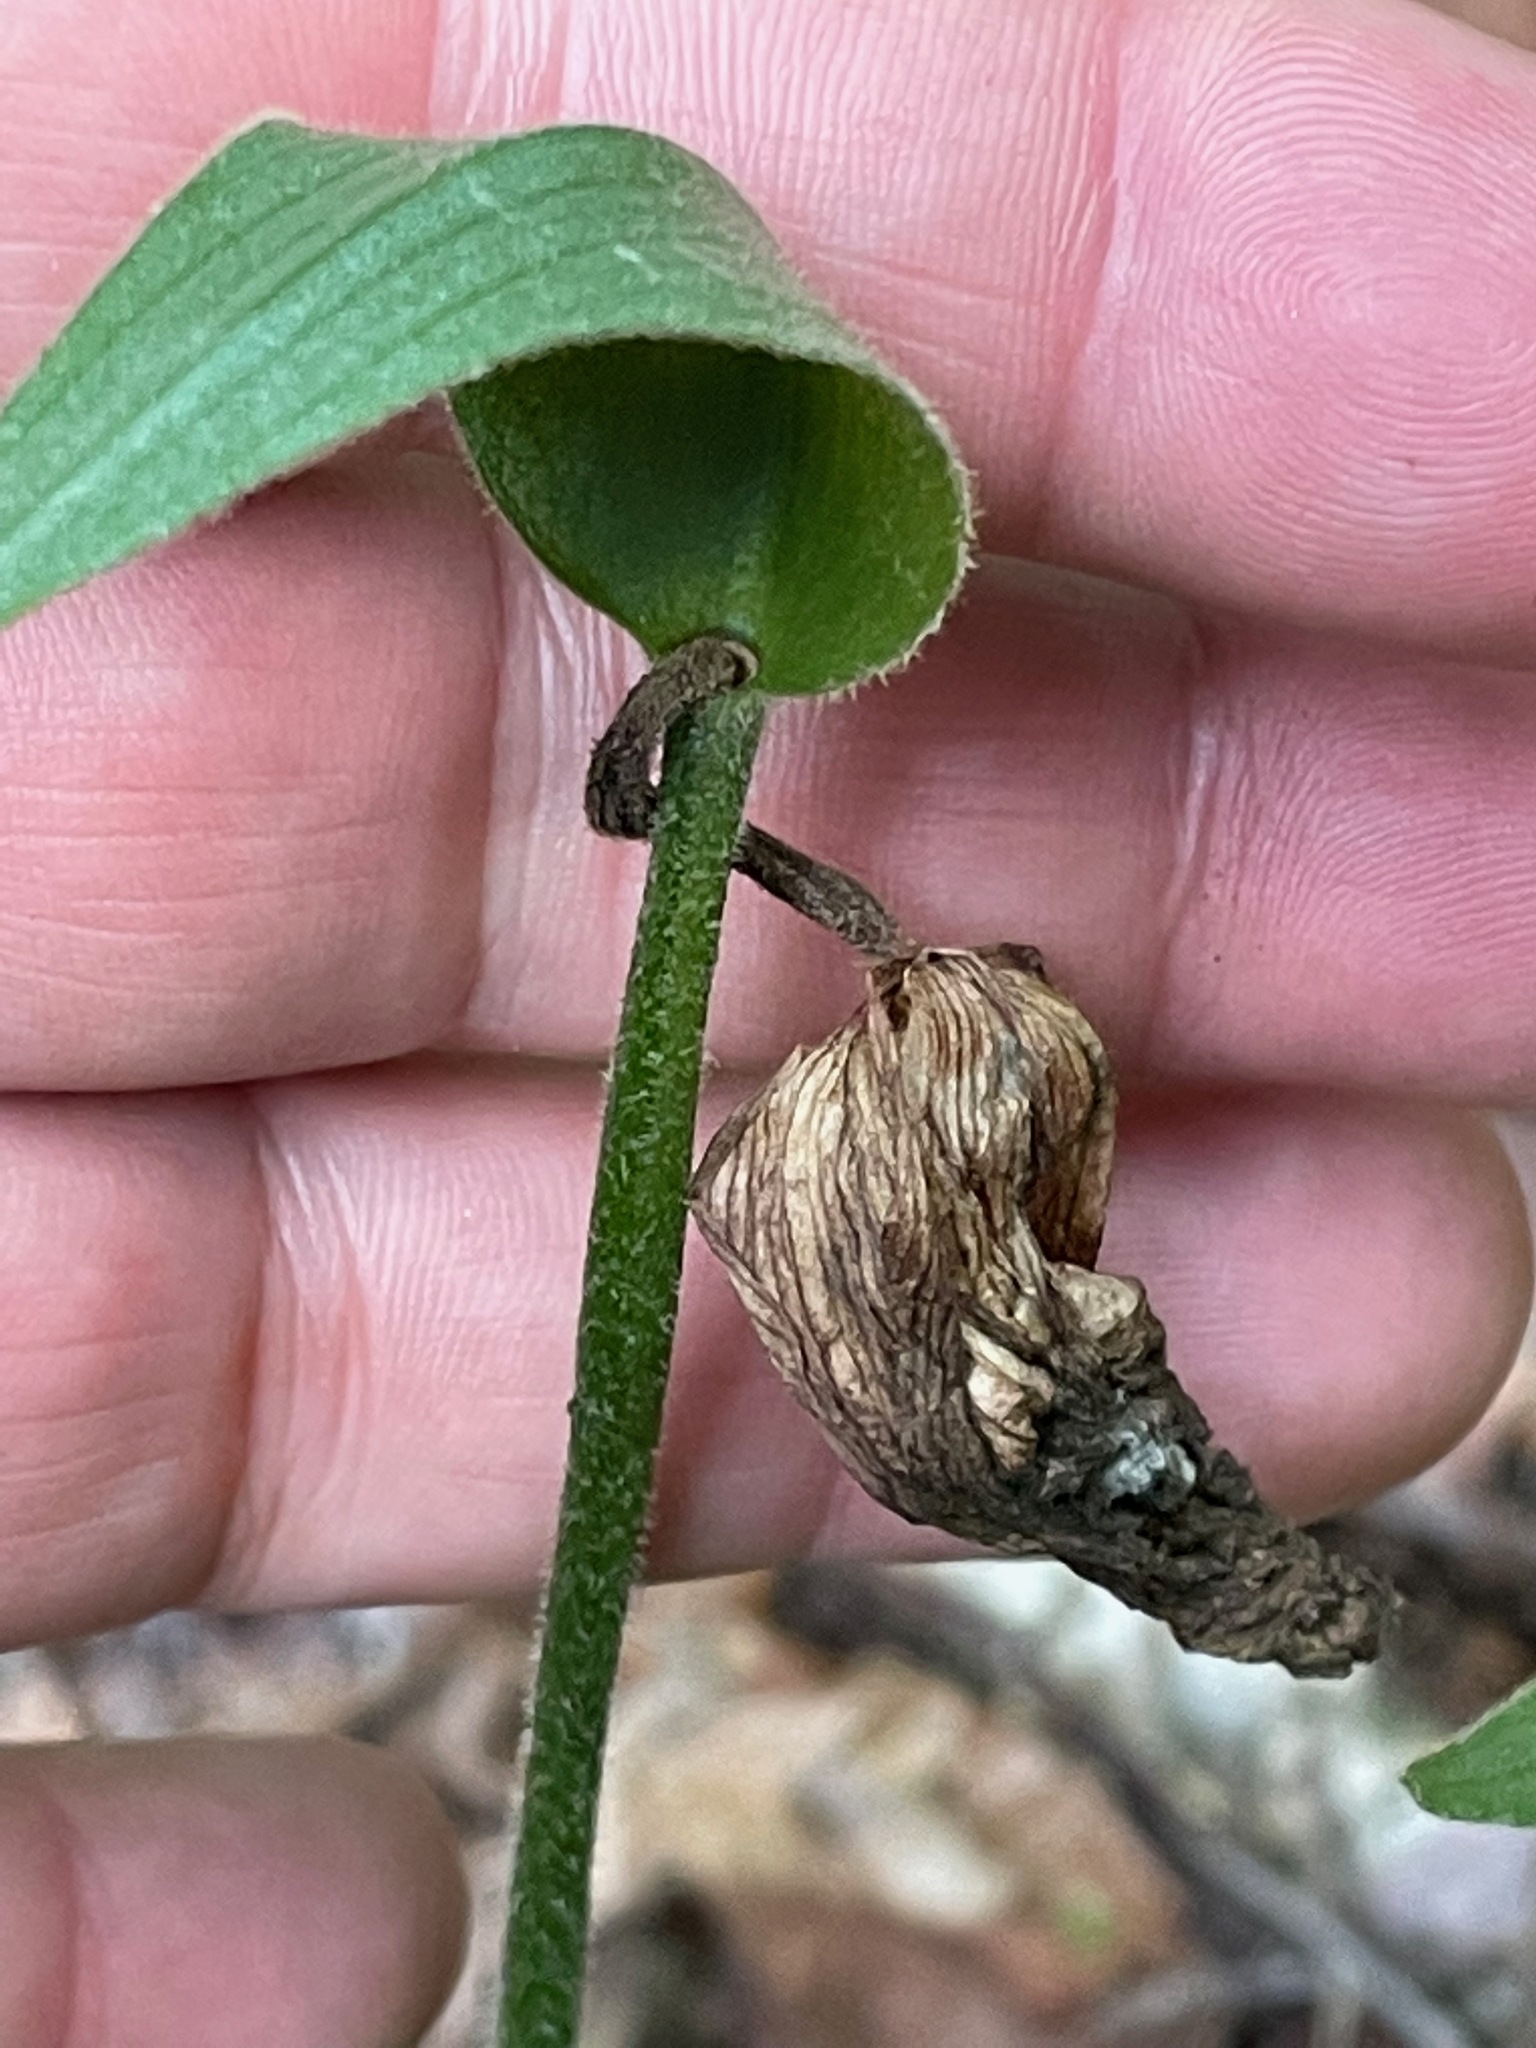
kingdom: Plantae
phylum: Tracheophyta
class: Liliopsida
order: Asparagales
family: Orchidaceae
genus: Cypripedium
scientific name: Cypripedium acaule
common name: Pink lady's-slipper
